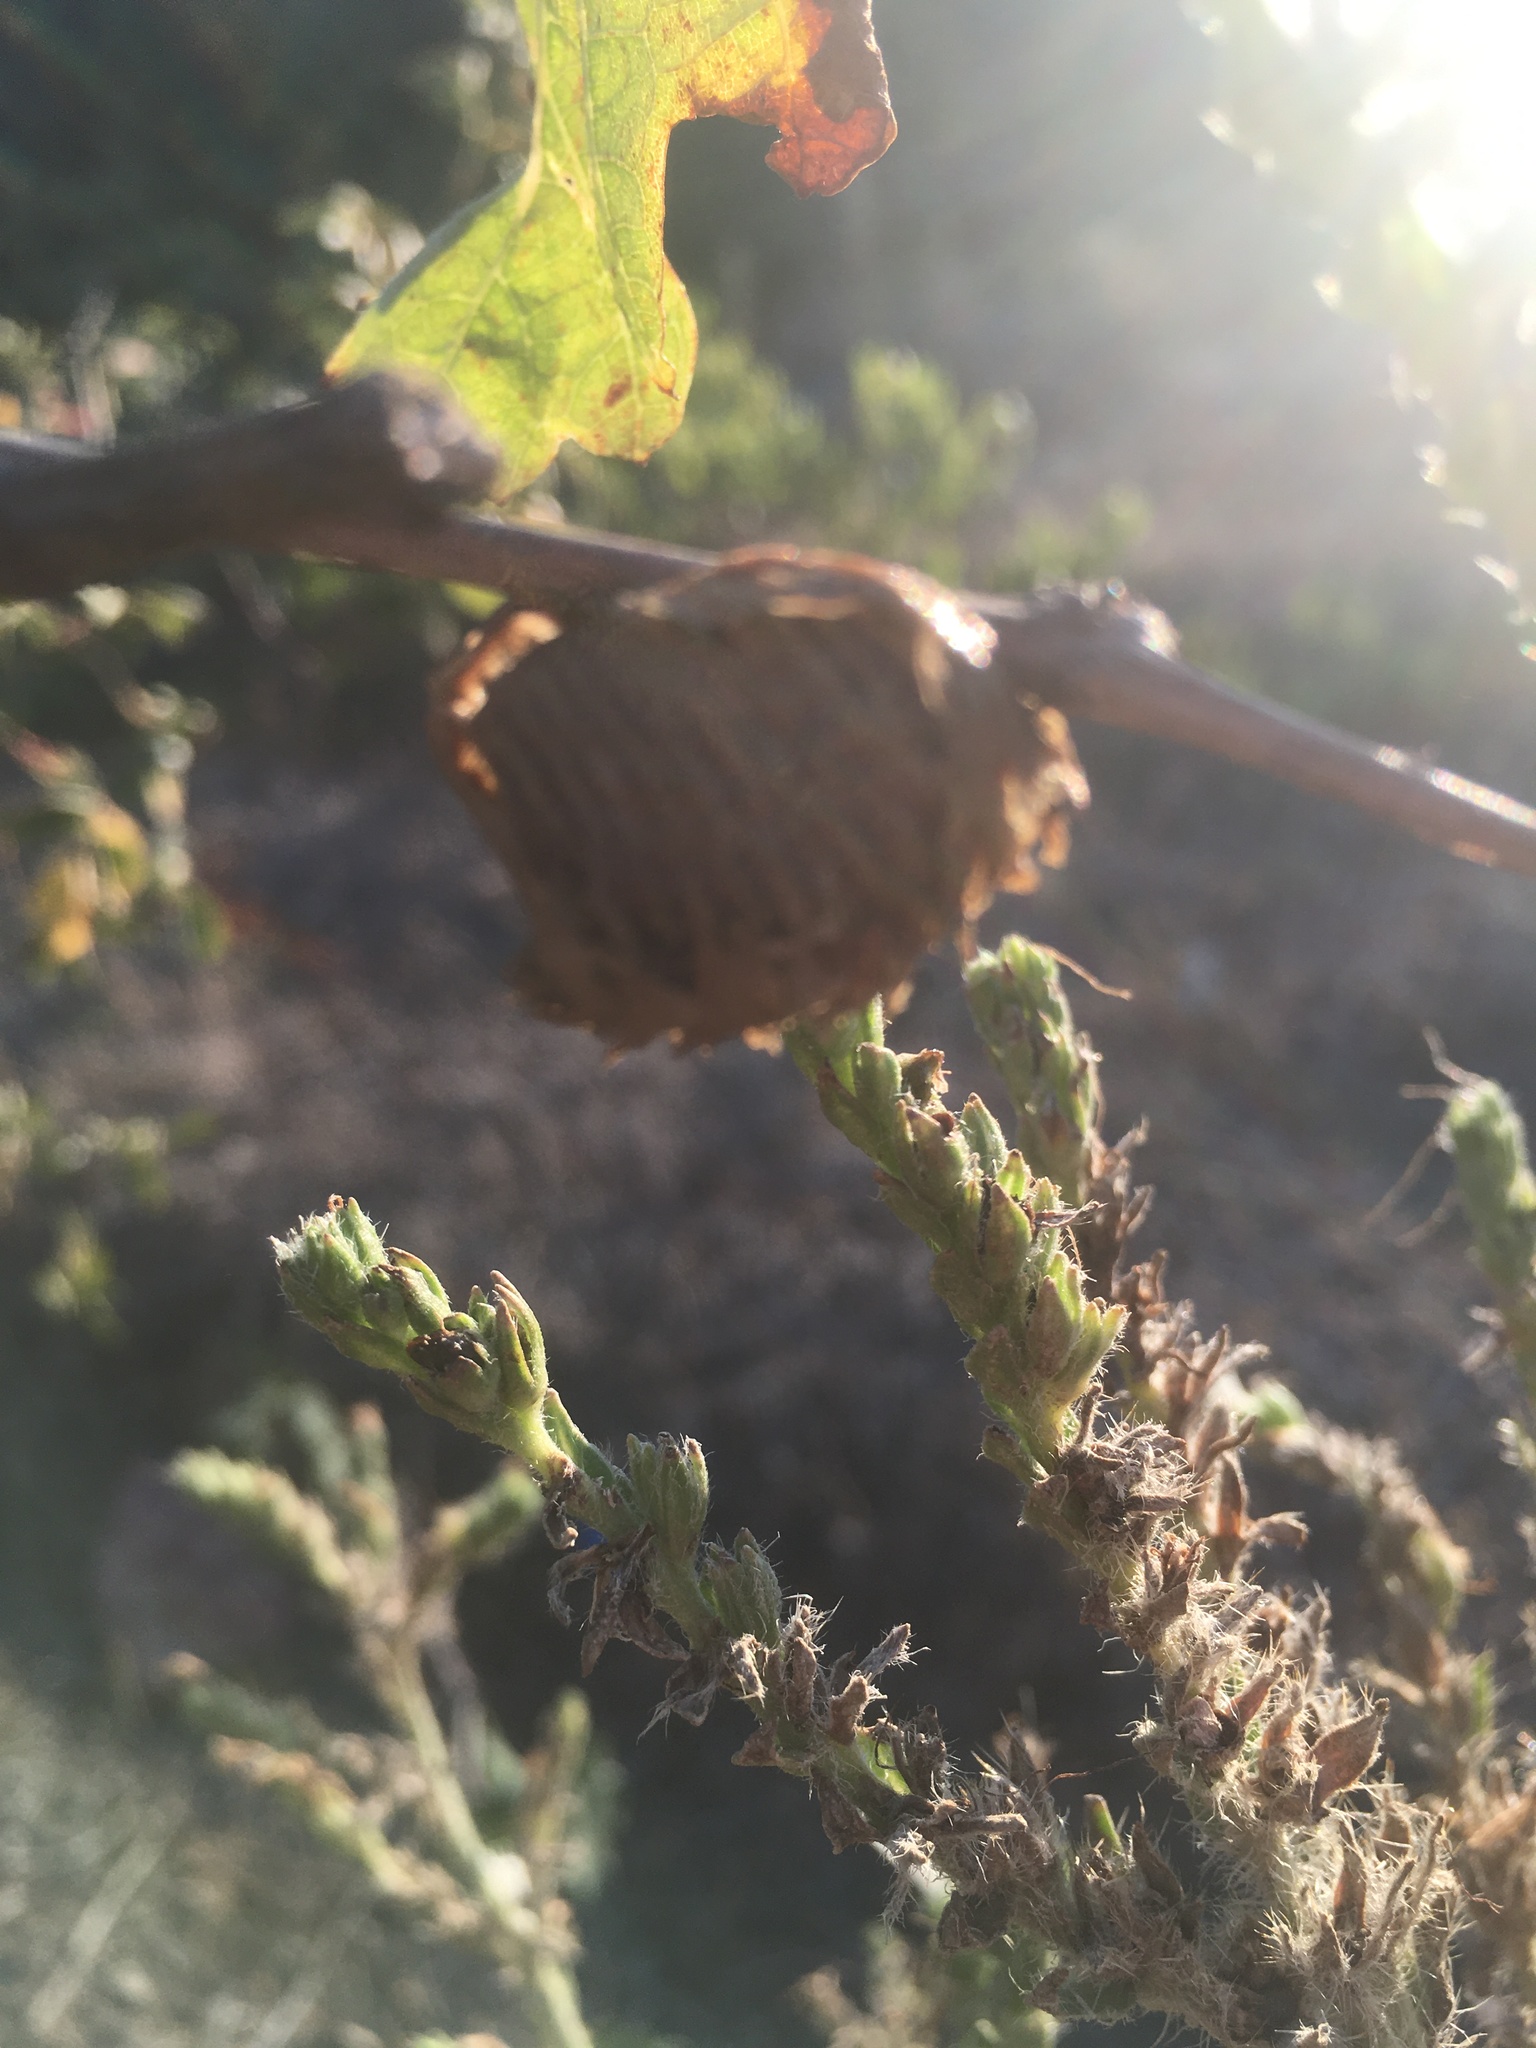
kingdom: Animalia
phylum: Arthropoda
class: Insecta
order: Mantodea
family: Mantidae
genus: Hierodula
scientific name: Hierodula transcaucasica
